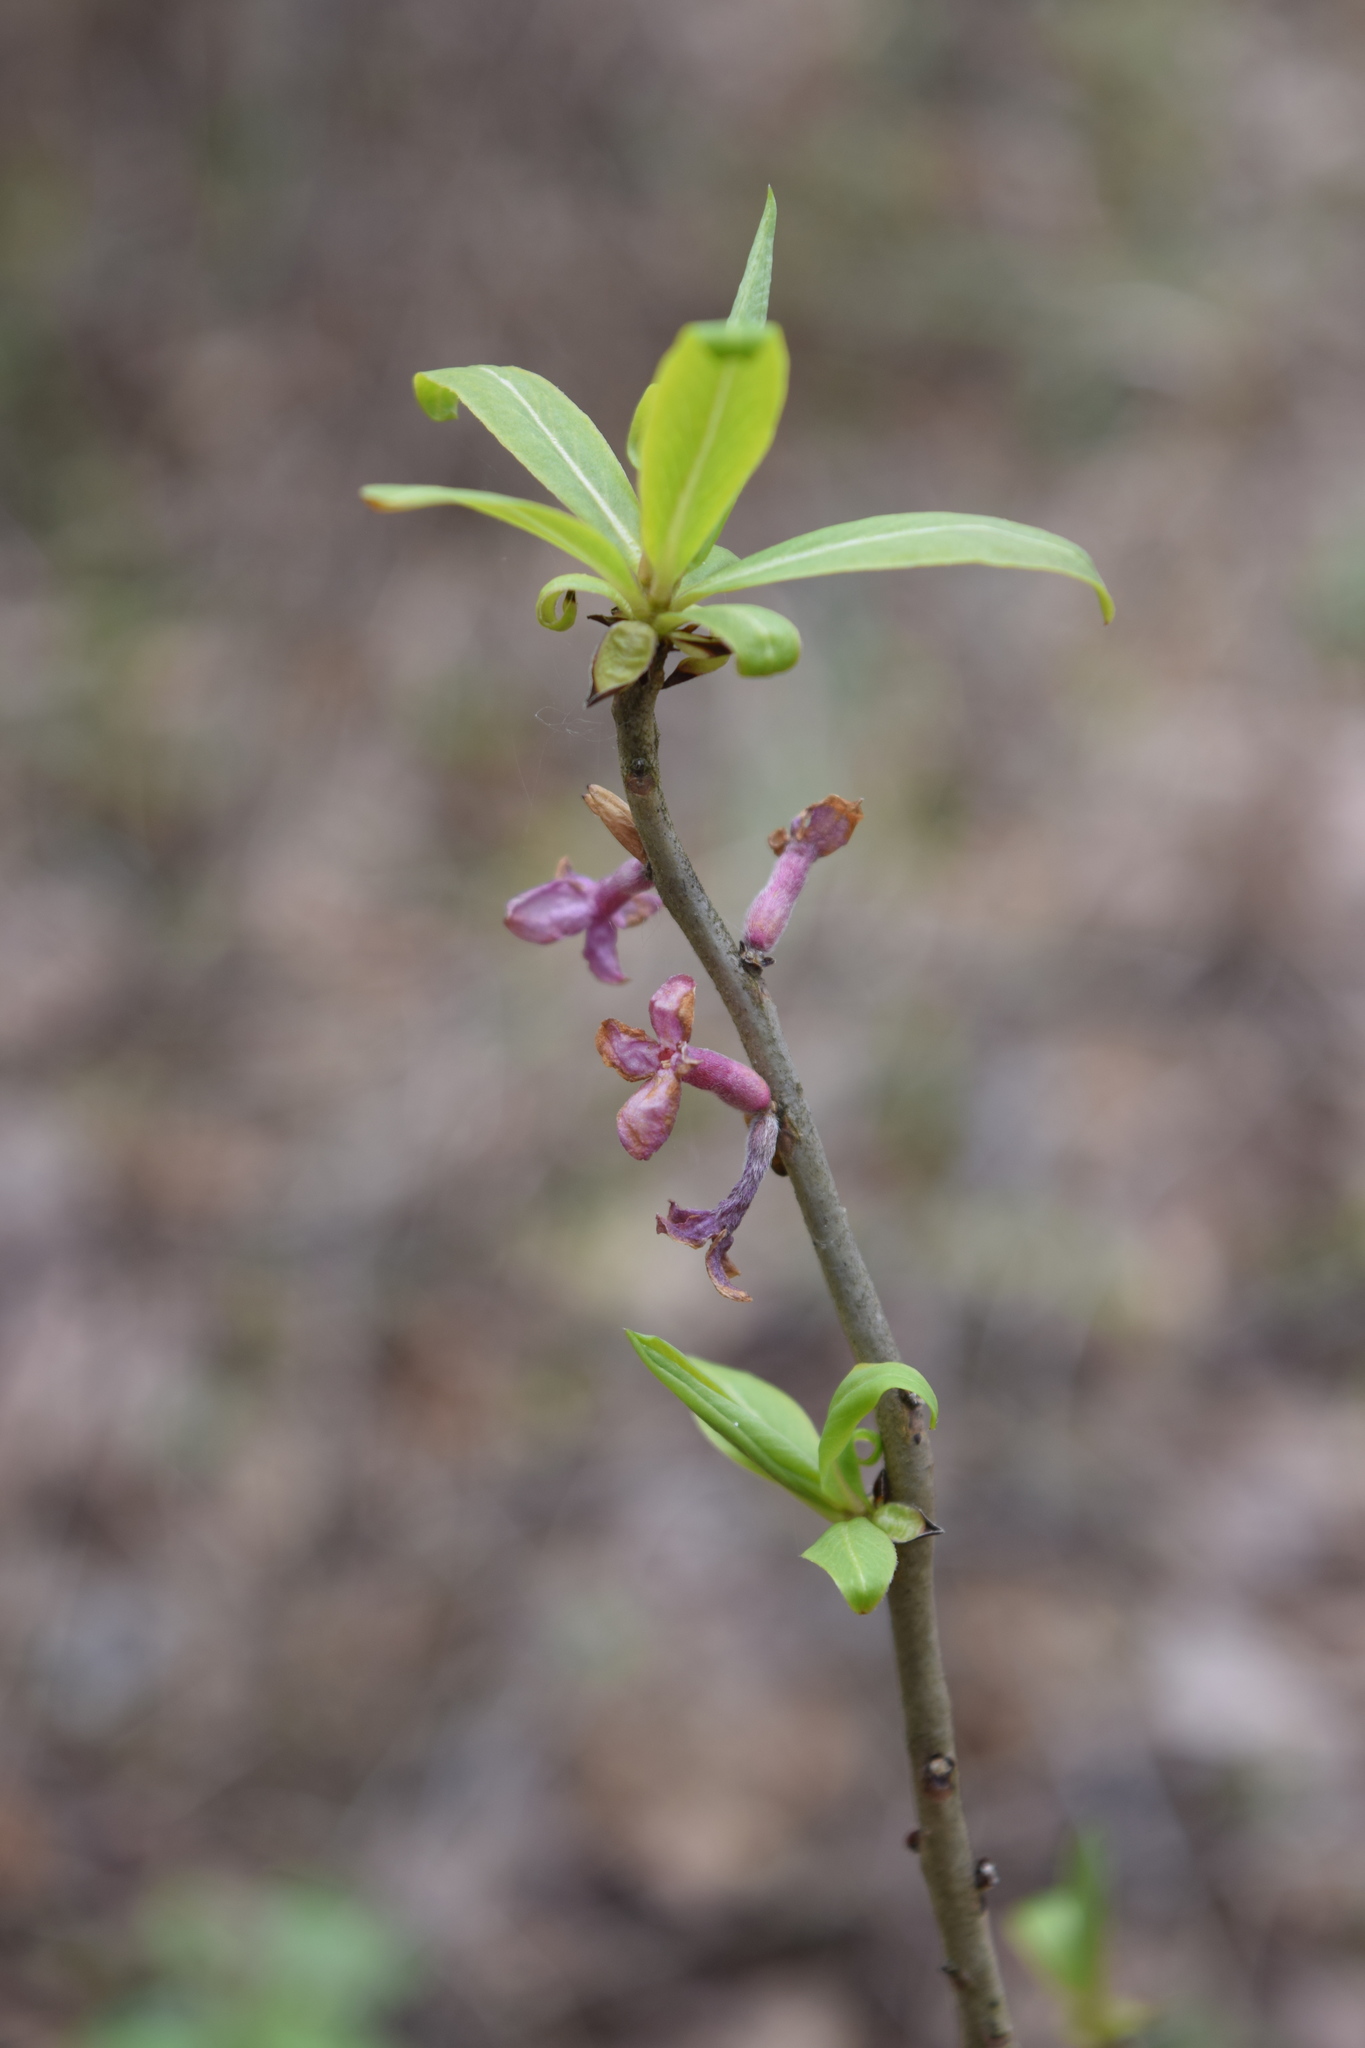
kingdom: Plantae
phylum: Tracheophyta
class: Magnoliopsida
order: Malvales
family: Thymelaeaceae
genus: Daphne
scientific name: Daphne mezereum
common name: Mezereon
